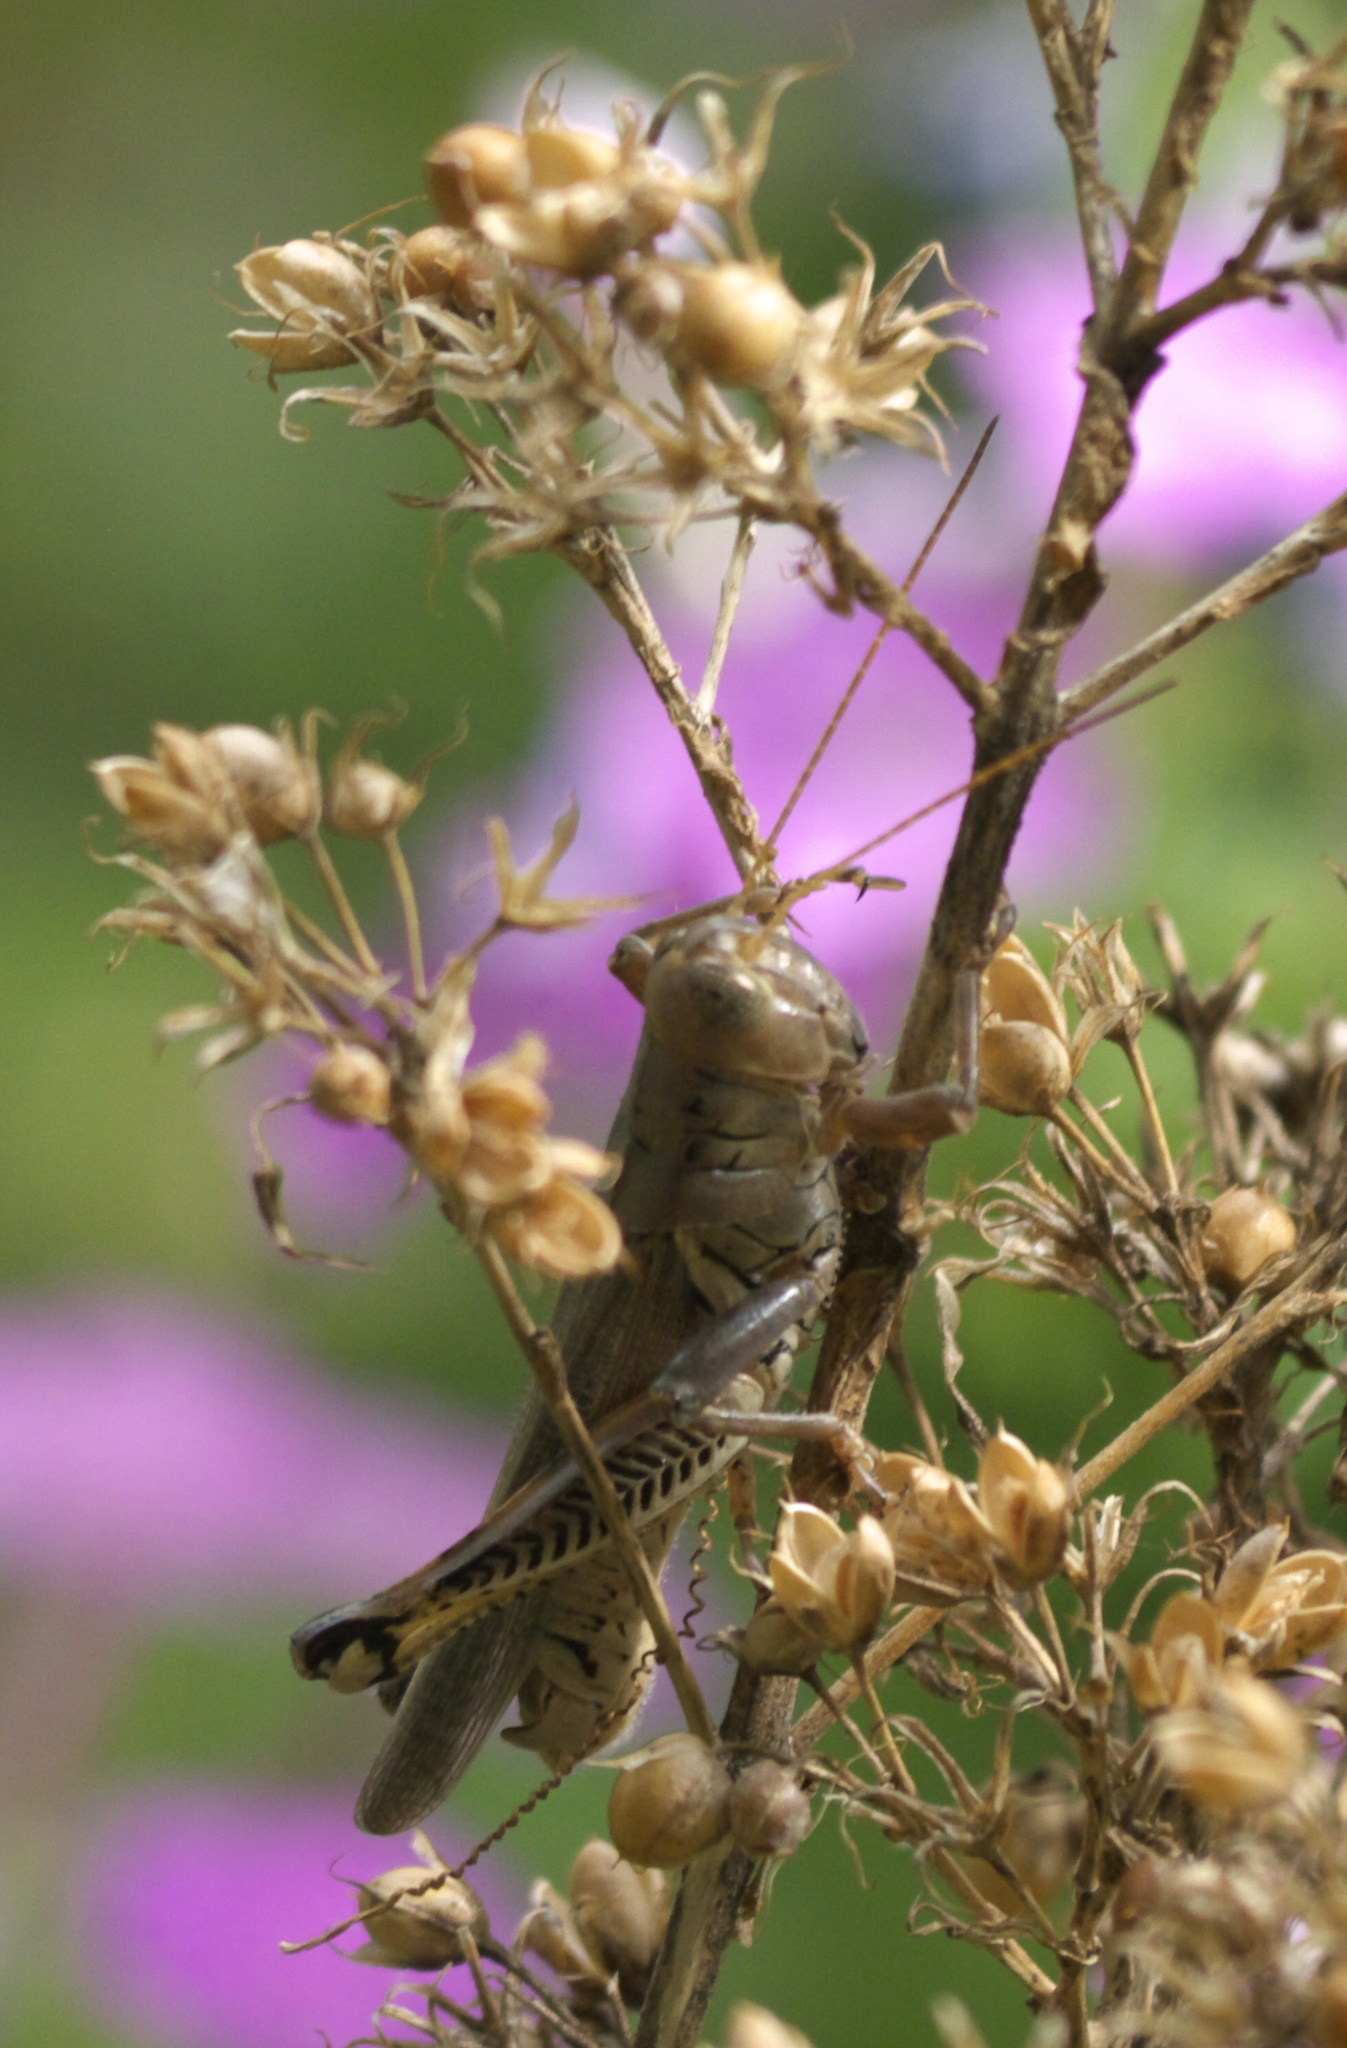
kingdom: Animalia
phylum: Arthropoda
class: Insecta
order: Orthoptera
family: Acrididae
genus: Melanoplus
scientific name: Melanoplus differentialis
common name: Differential grasshopper
